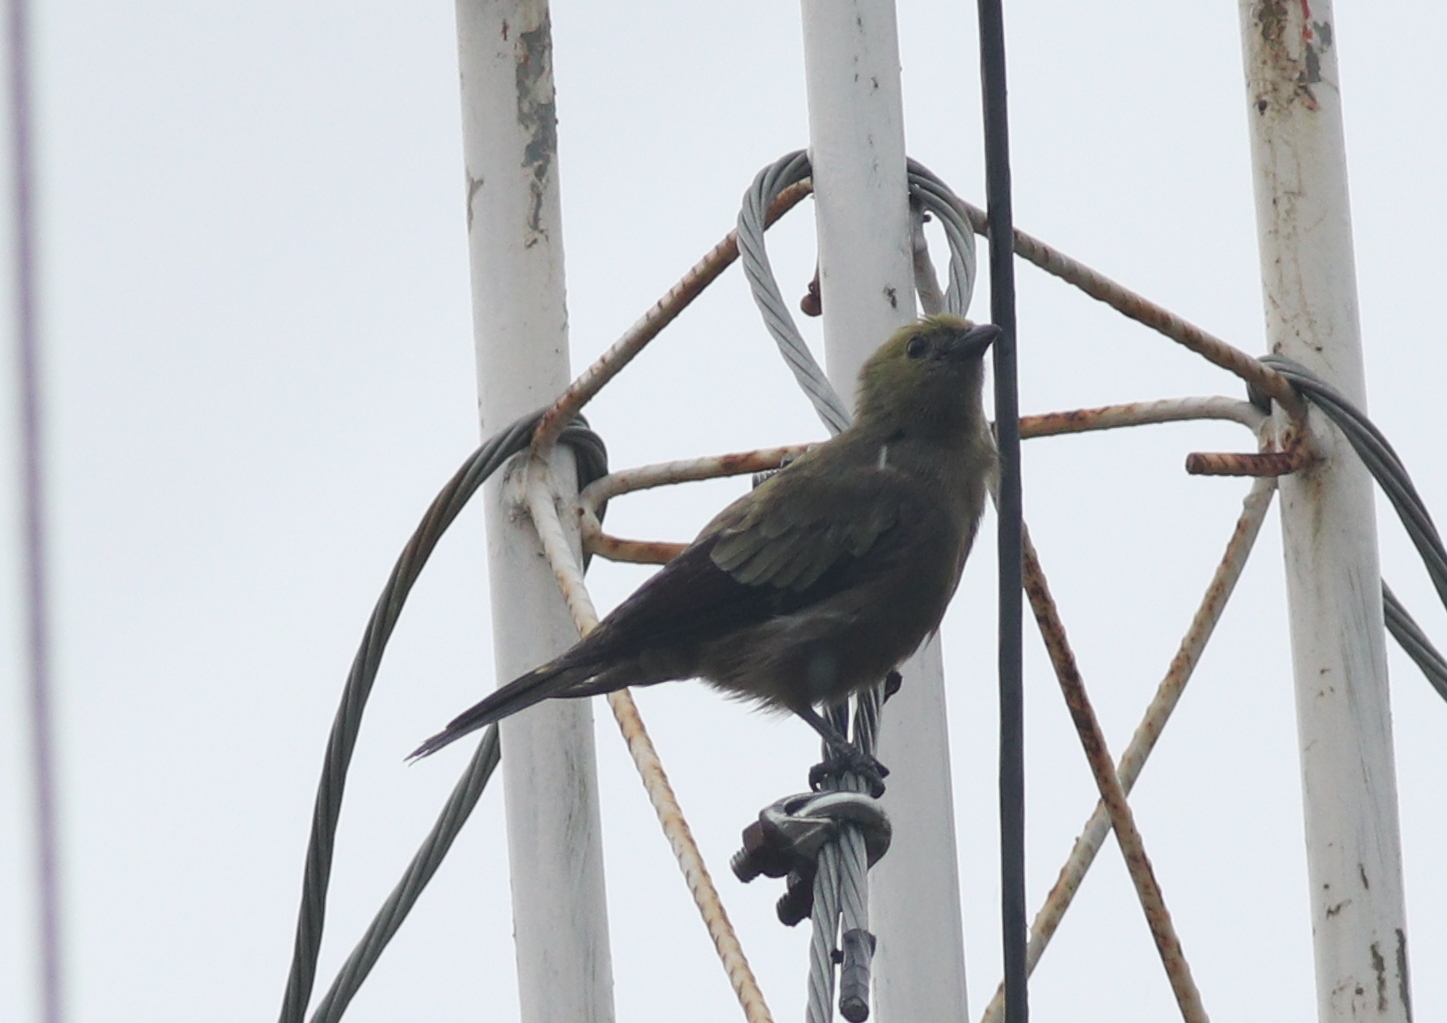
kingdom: Animalia
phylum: Chordata
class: Aves
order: Passeriformes
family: Thraupidae
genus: Thraupis
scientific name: Thraupis palmarum
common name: Palm tanager
